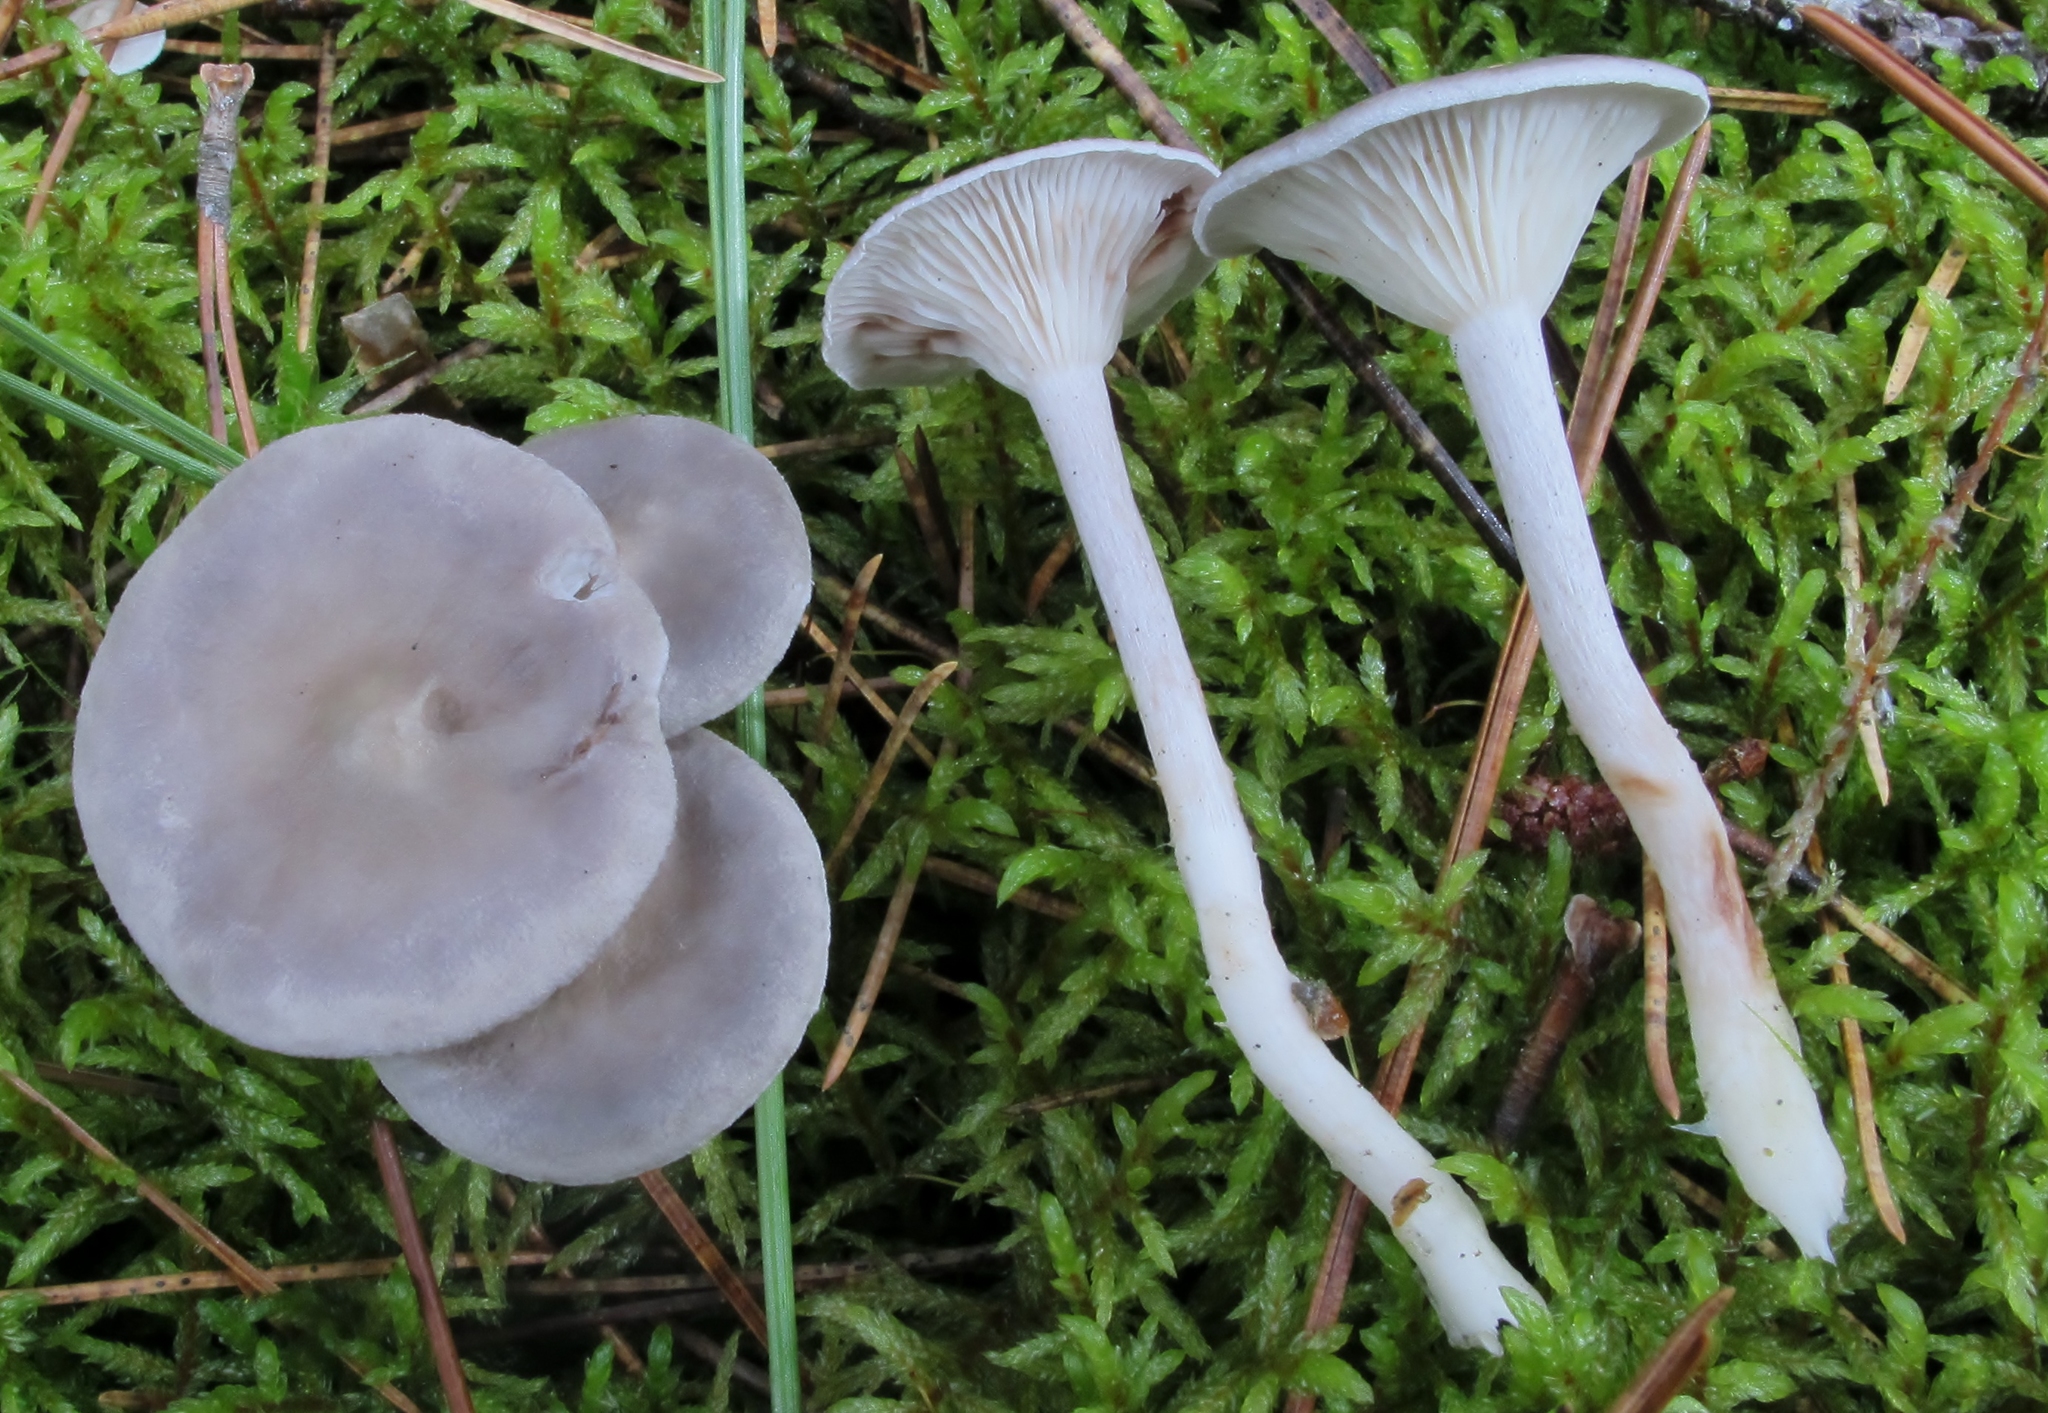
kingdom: Fungi
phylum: Basidiomycota
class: Agaricomycetes
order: Agaricales
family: Hygrophoraceae
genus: Cantharellula
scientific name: Cantharellula umbonata
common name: The humpback
